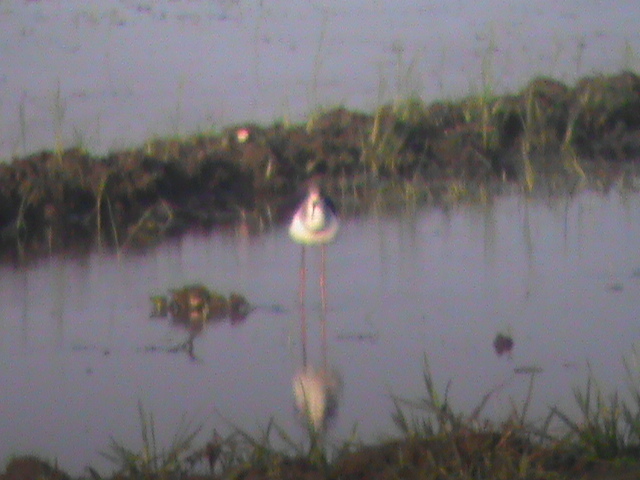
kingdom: Animalia
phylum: Chordata
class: Aves
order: Charadriiformes
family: Recurvirostridae
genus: Himantopus
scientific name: Himantopus himantopus
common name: Black-winged stilt
